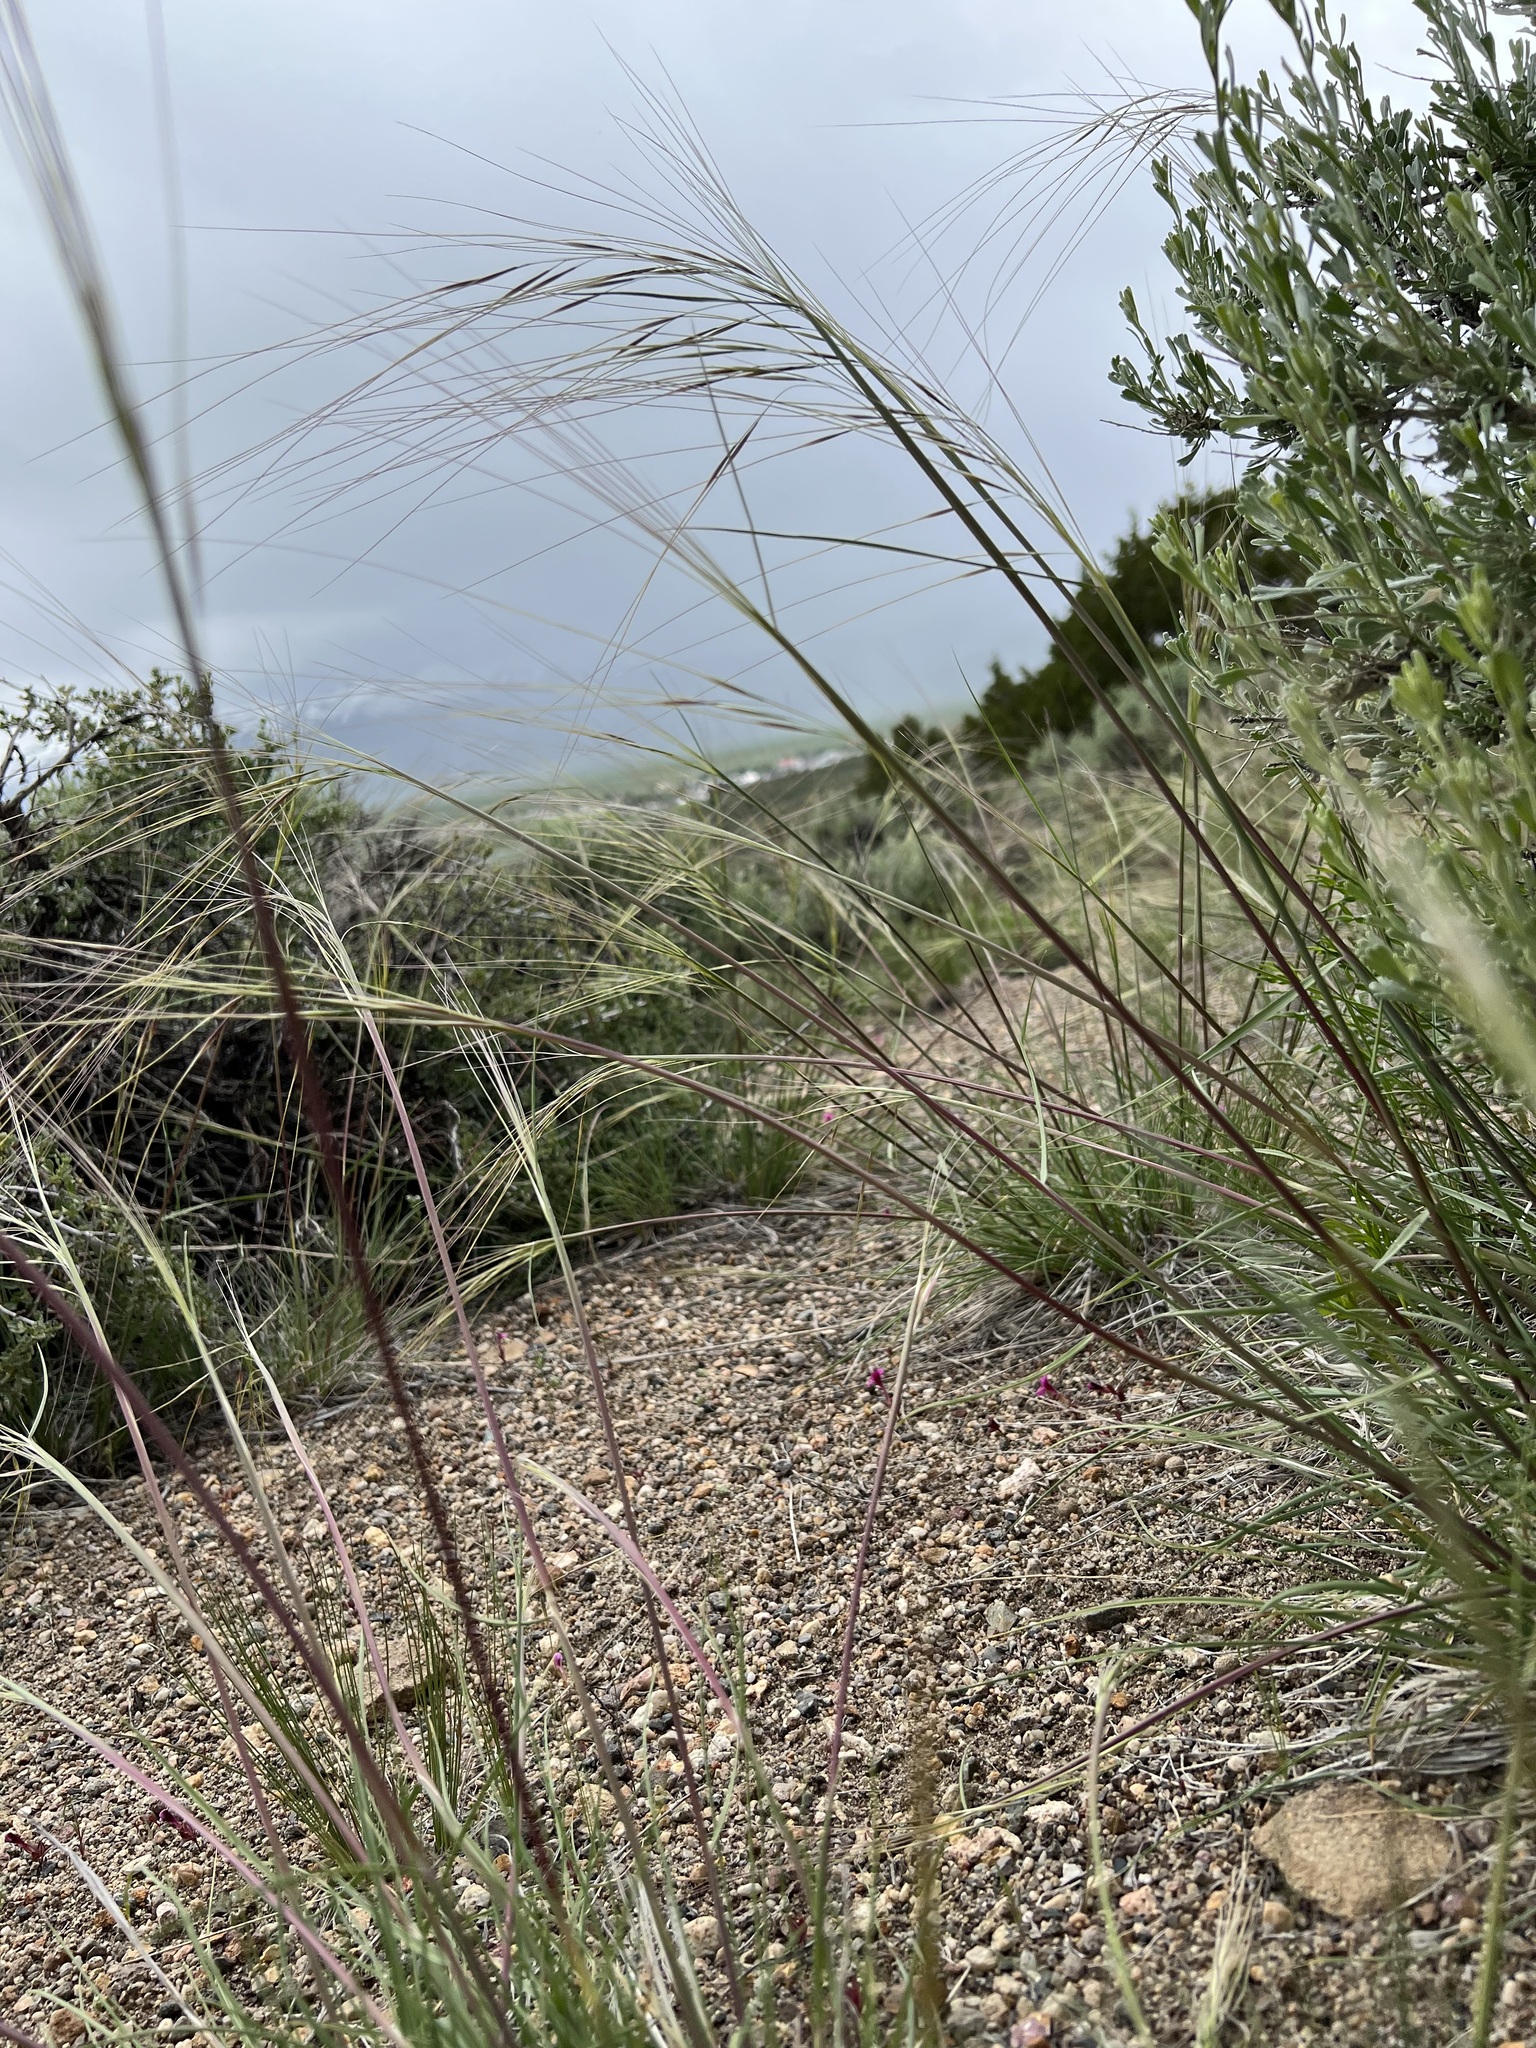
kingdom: Plantae
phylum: Tracheophyta
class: Liliopsida
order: Poales
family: Poaceae
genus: Hesperostipa
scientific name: Hesperostipa comata
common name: Needle-and-thread grass
